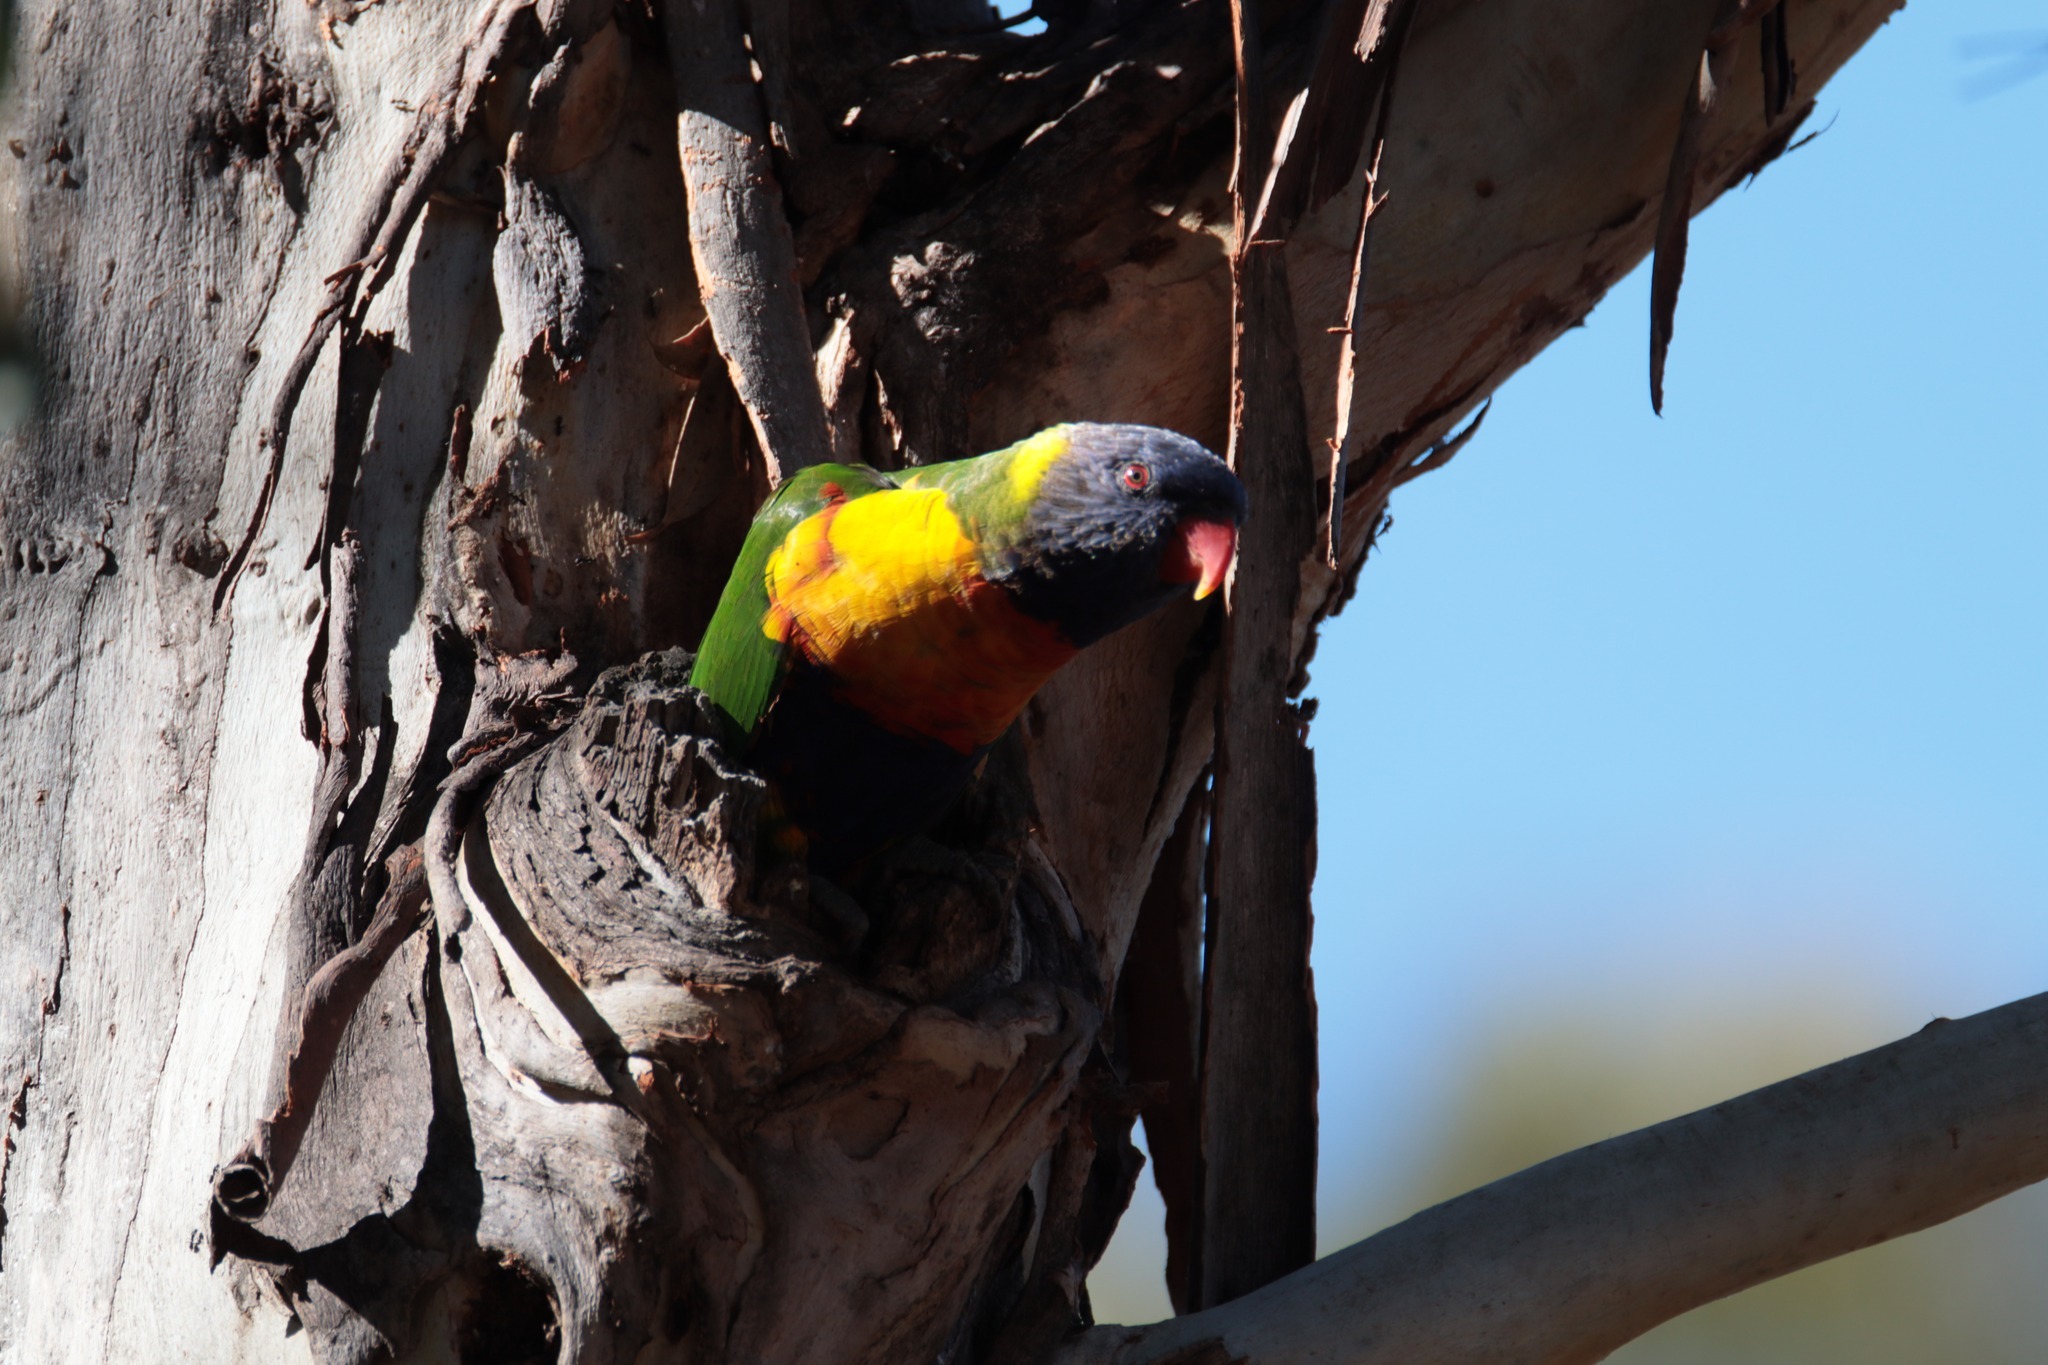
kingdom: Animalia
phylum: Chordata
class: Aves
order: Psittaciformes
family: Psittacidae
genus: Trichoglossus
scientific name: Trichoglossus haematodus
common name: Coconut lorikeet
